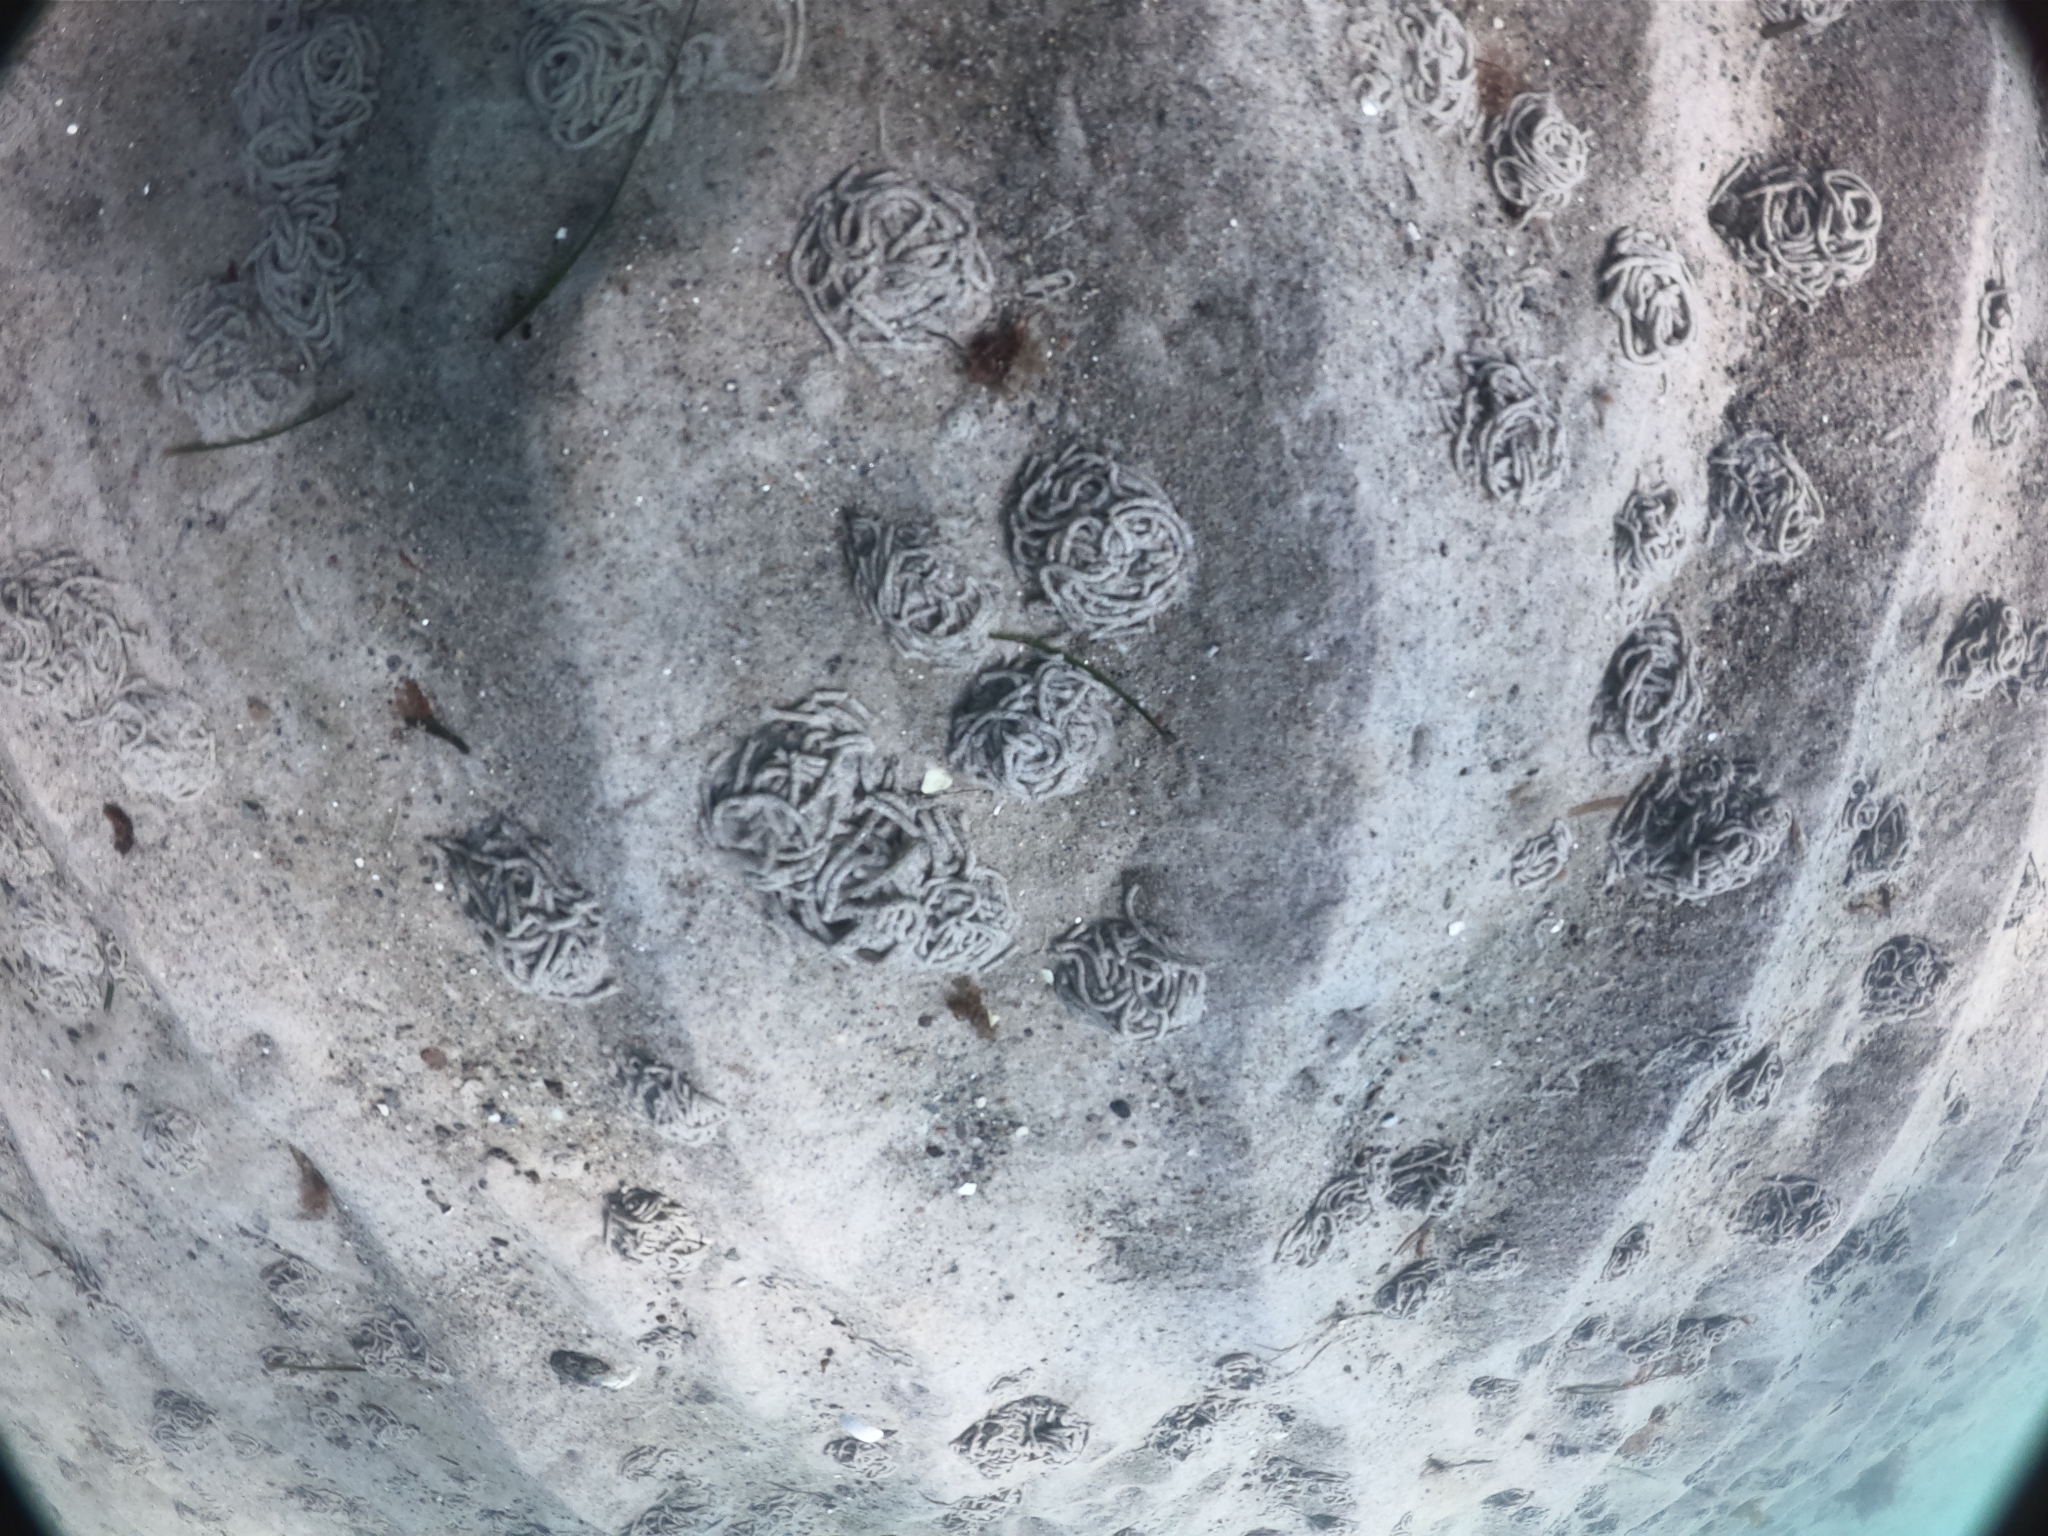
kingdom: Animalia
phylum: Annelida
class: Polychaeta
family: Arenicolidae
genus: Arenicola
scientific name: Arenicola marina
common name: Blow lugworm
